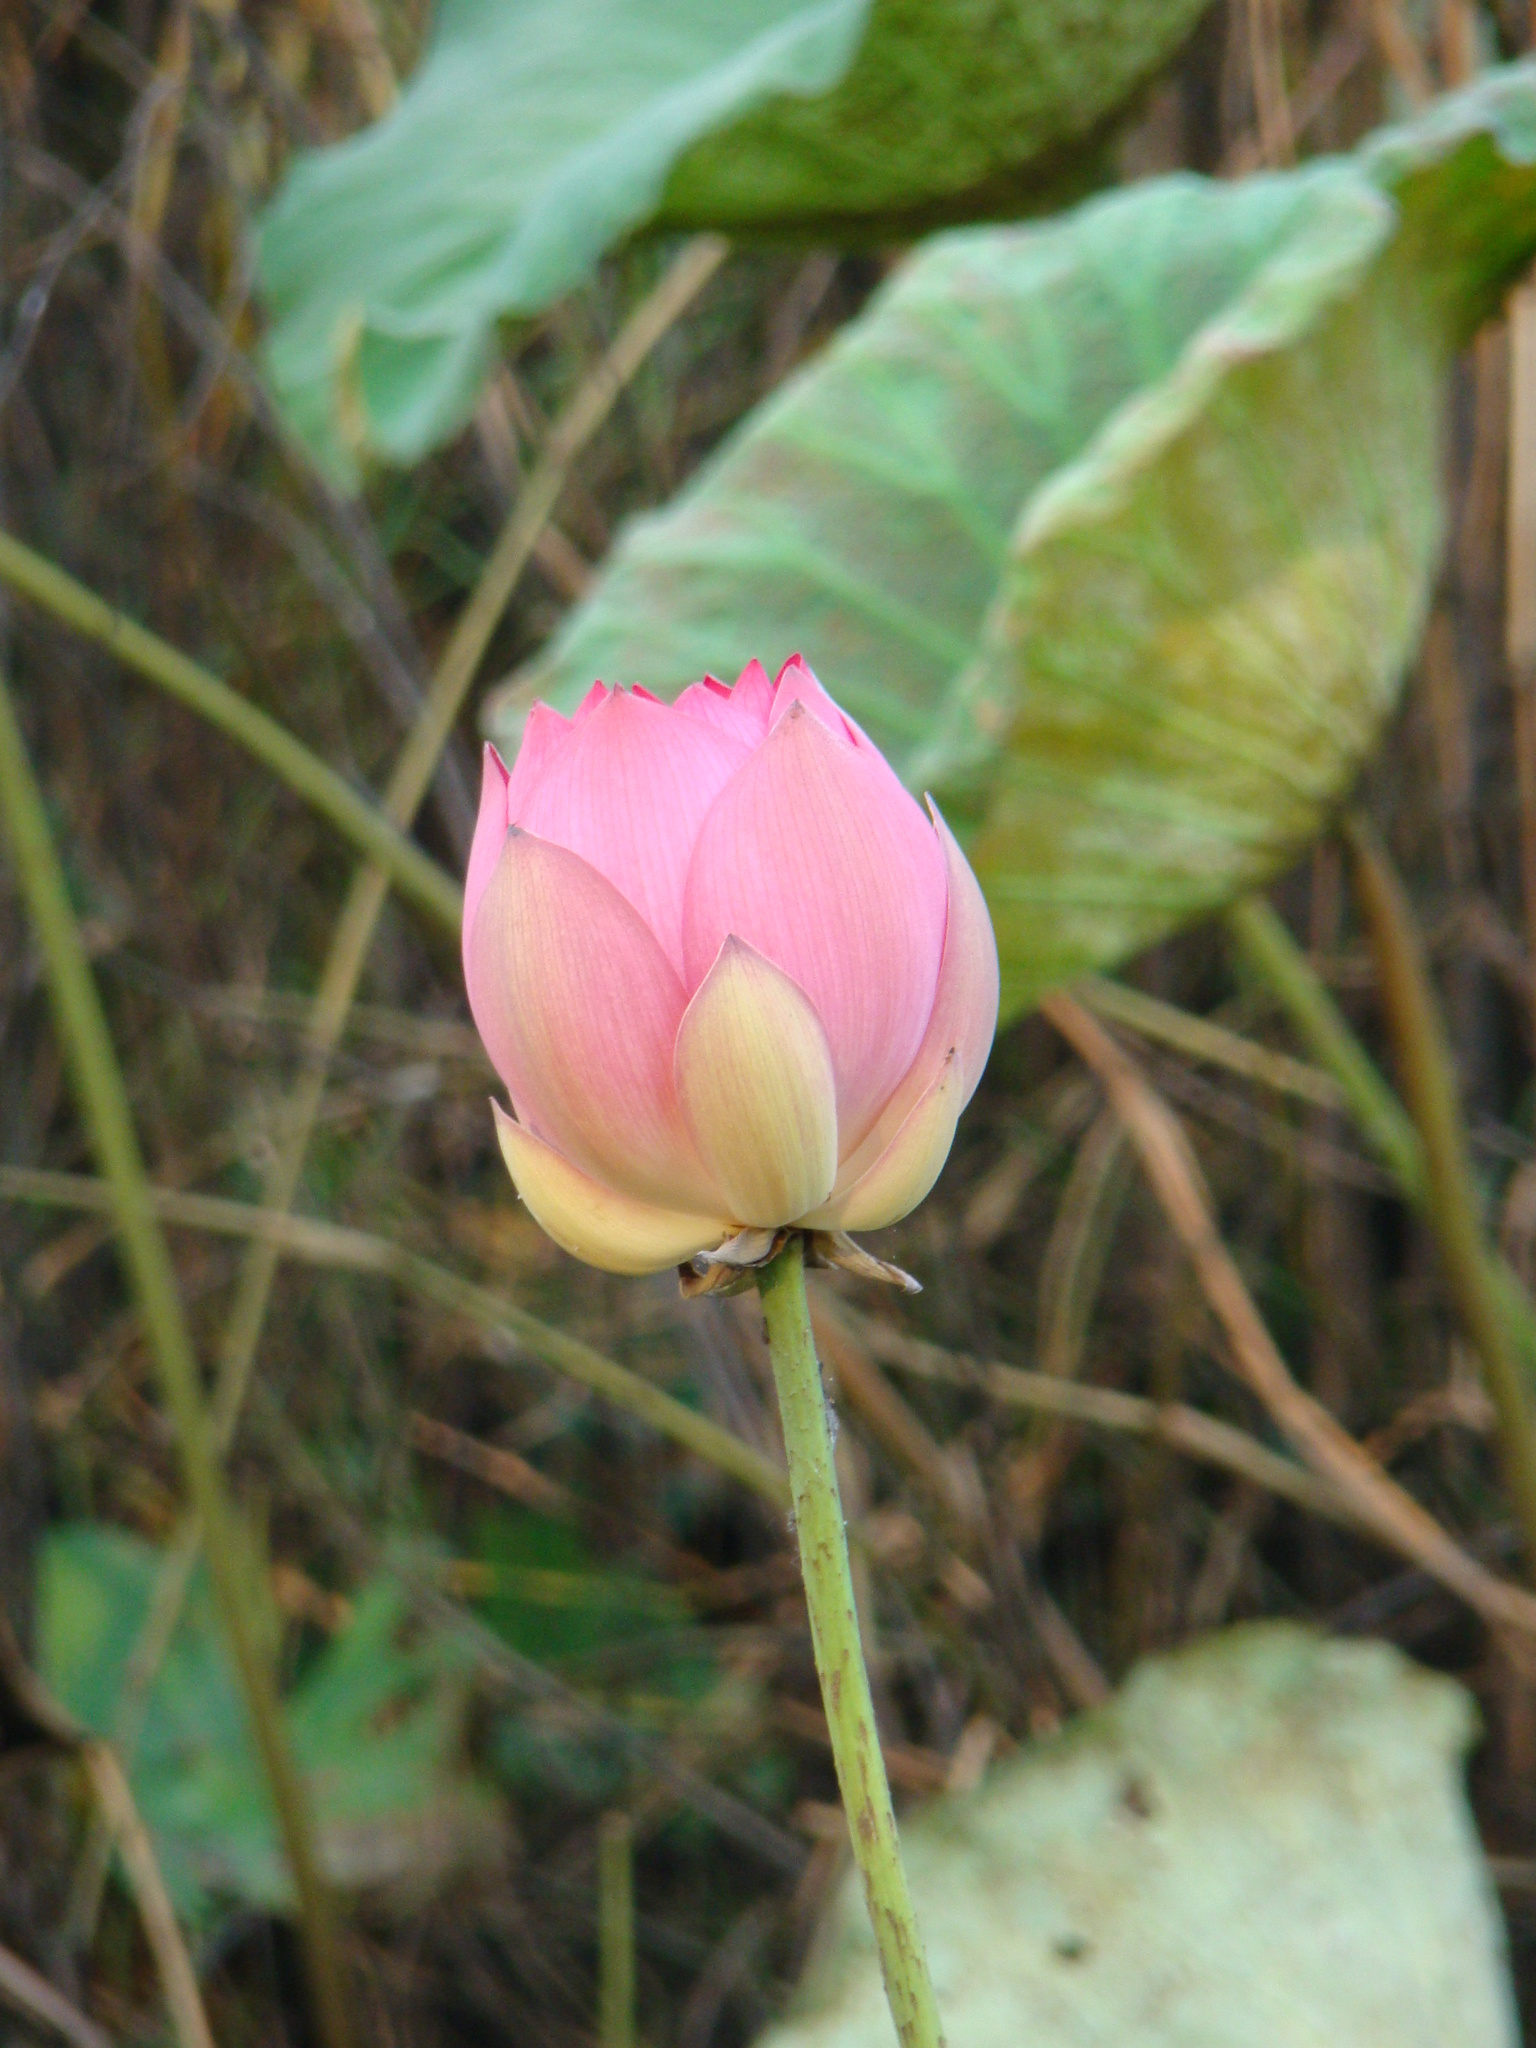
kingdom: Plantae
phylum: Tracheophyta
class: Magnoliopsida
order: Proteales
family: Nelumbonaceae
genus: Nelumbo
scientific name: Nelumbo nucifera
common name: Sacred lotus
